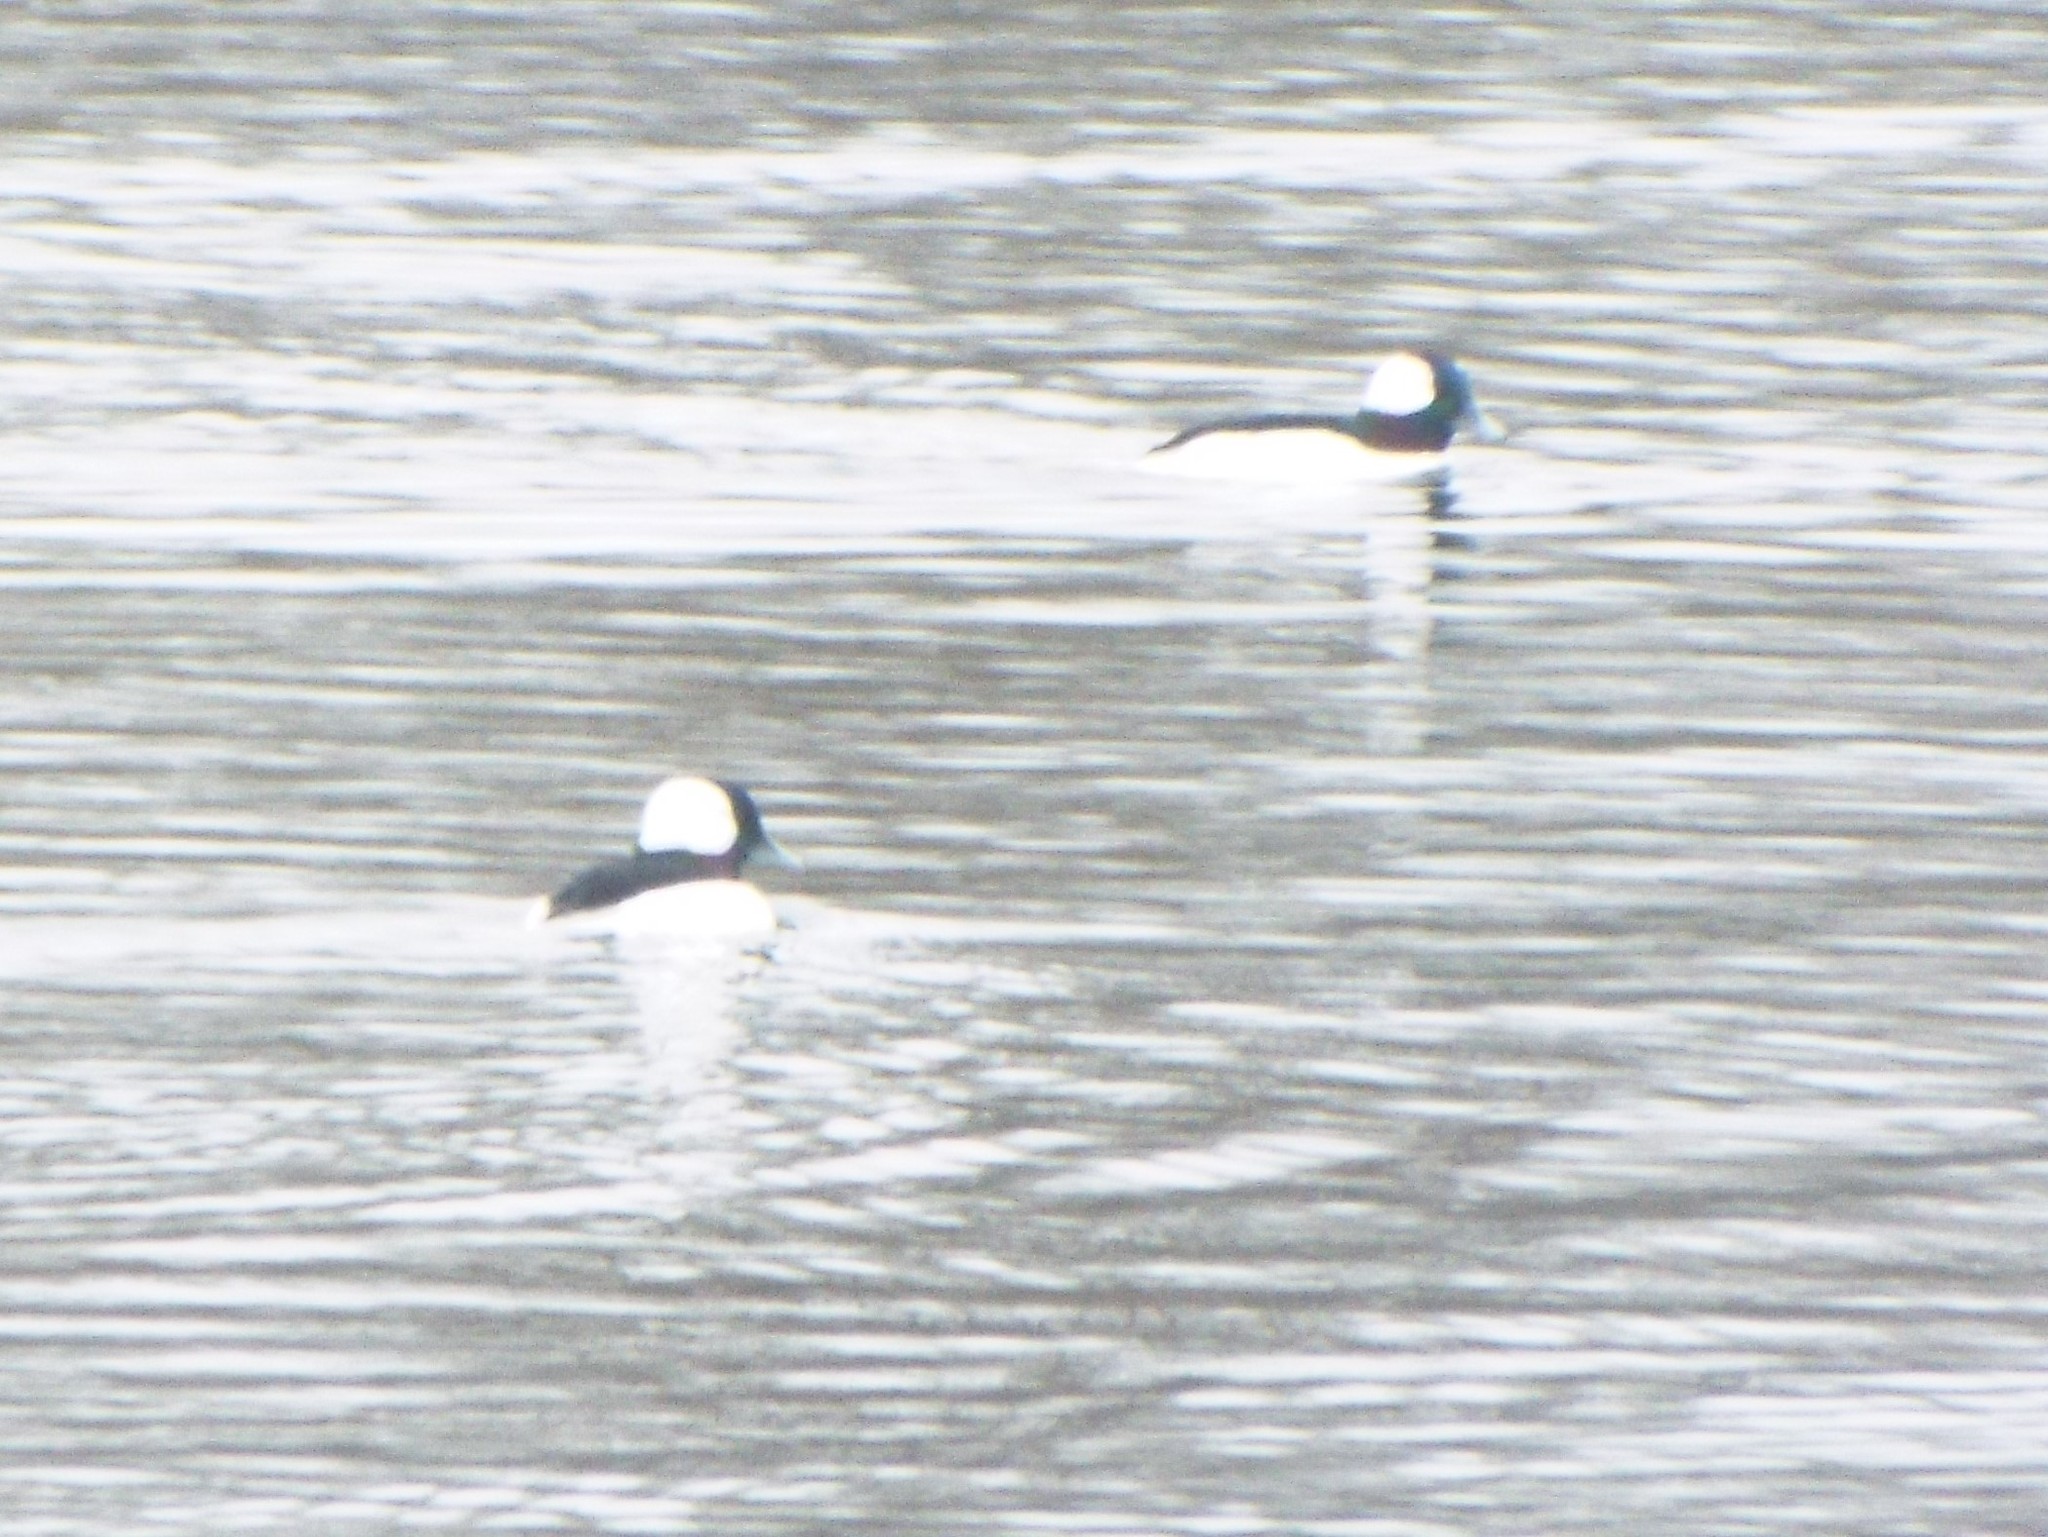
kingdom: Animalia
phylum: Chordata
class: Aves
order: Anseriformes
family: Anatidae
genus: Bucephala
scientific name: Bucephala albeola
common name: Bufflehead
